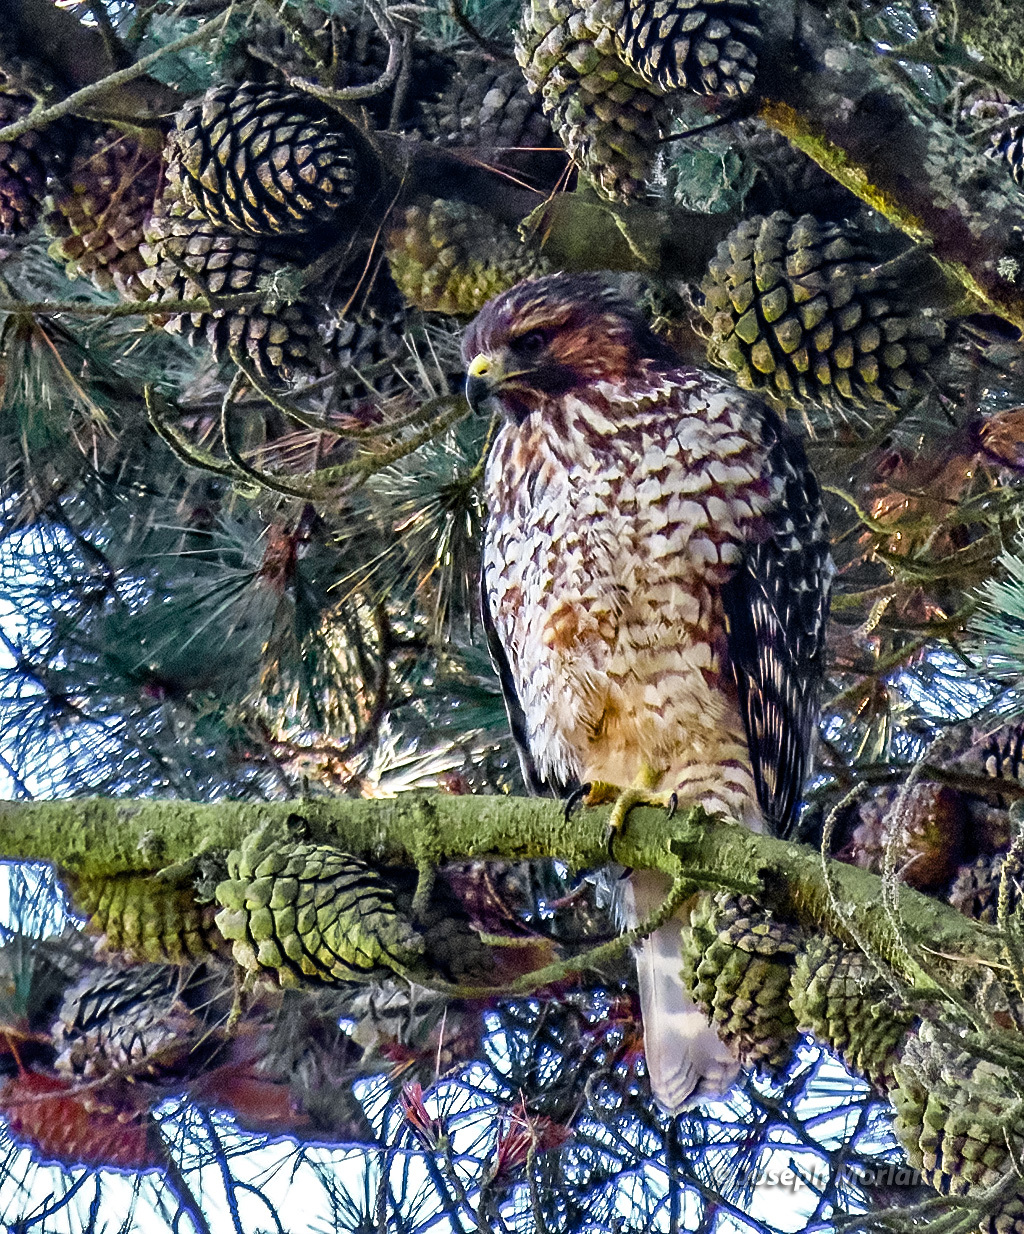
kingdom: Animalia
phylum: Chordata
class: Aves
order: Accipitriformes
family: Accipitridae
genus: Buteo
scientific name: Buteo lineatus
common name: Red-shouldered hawk
